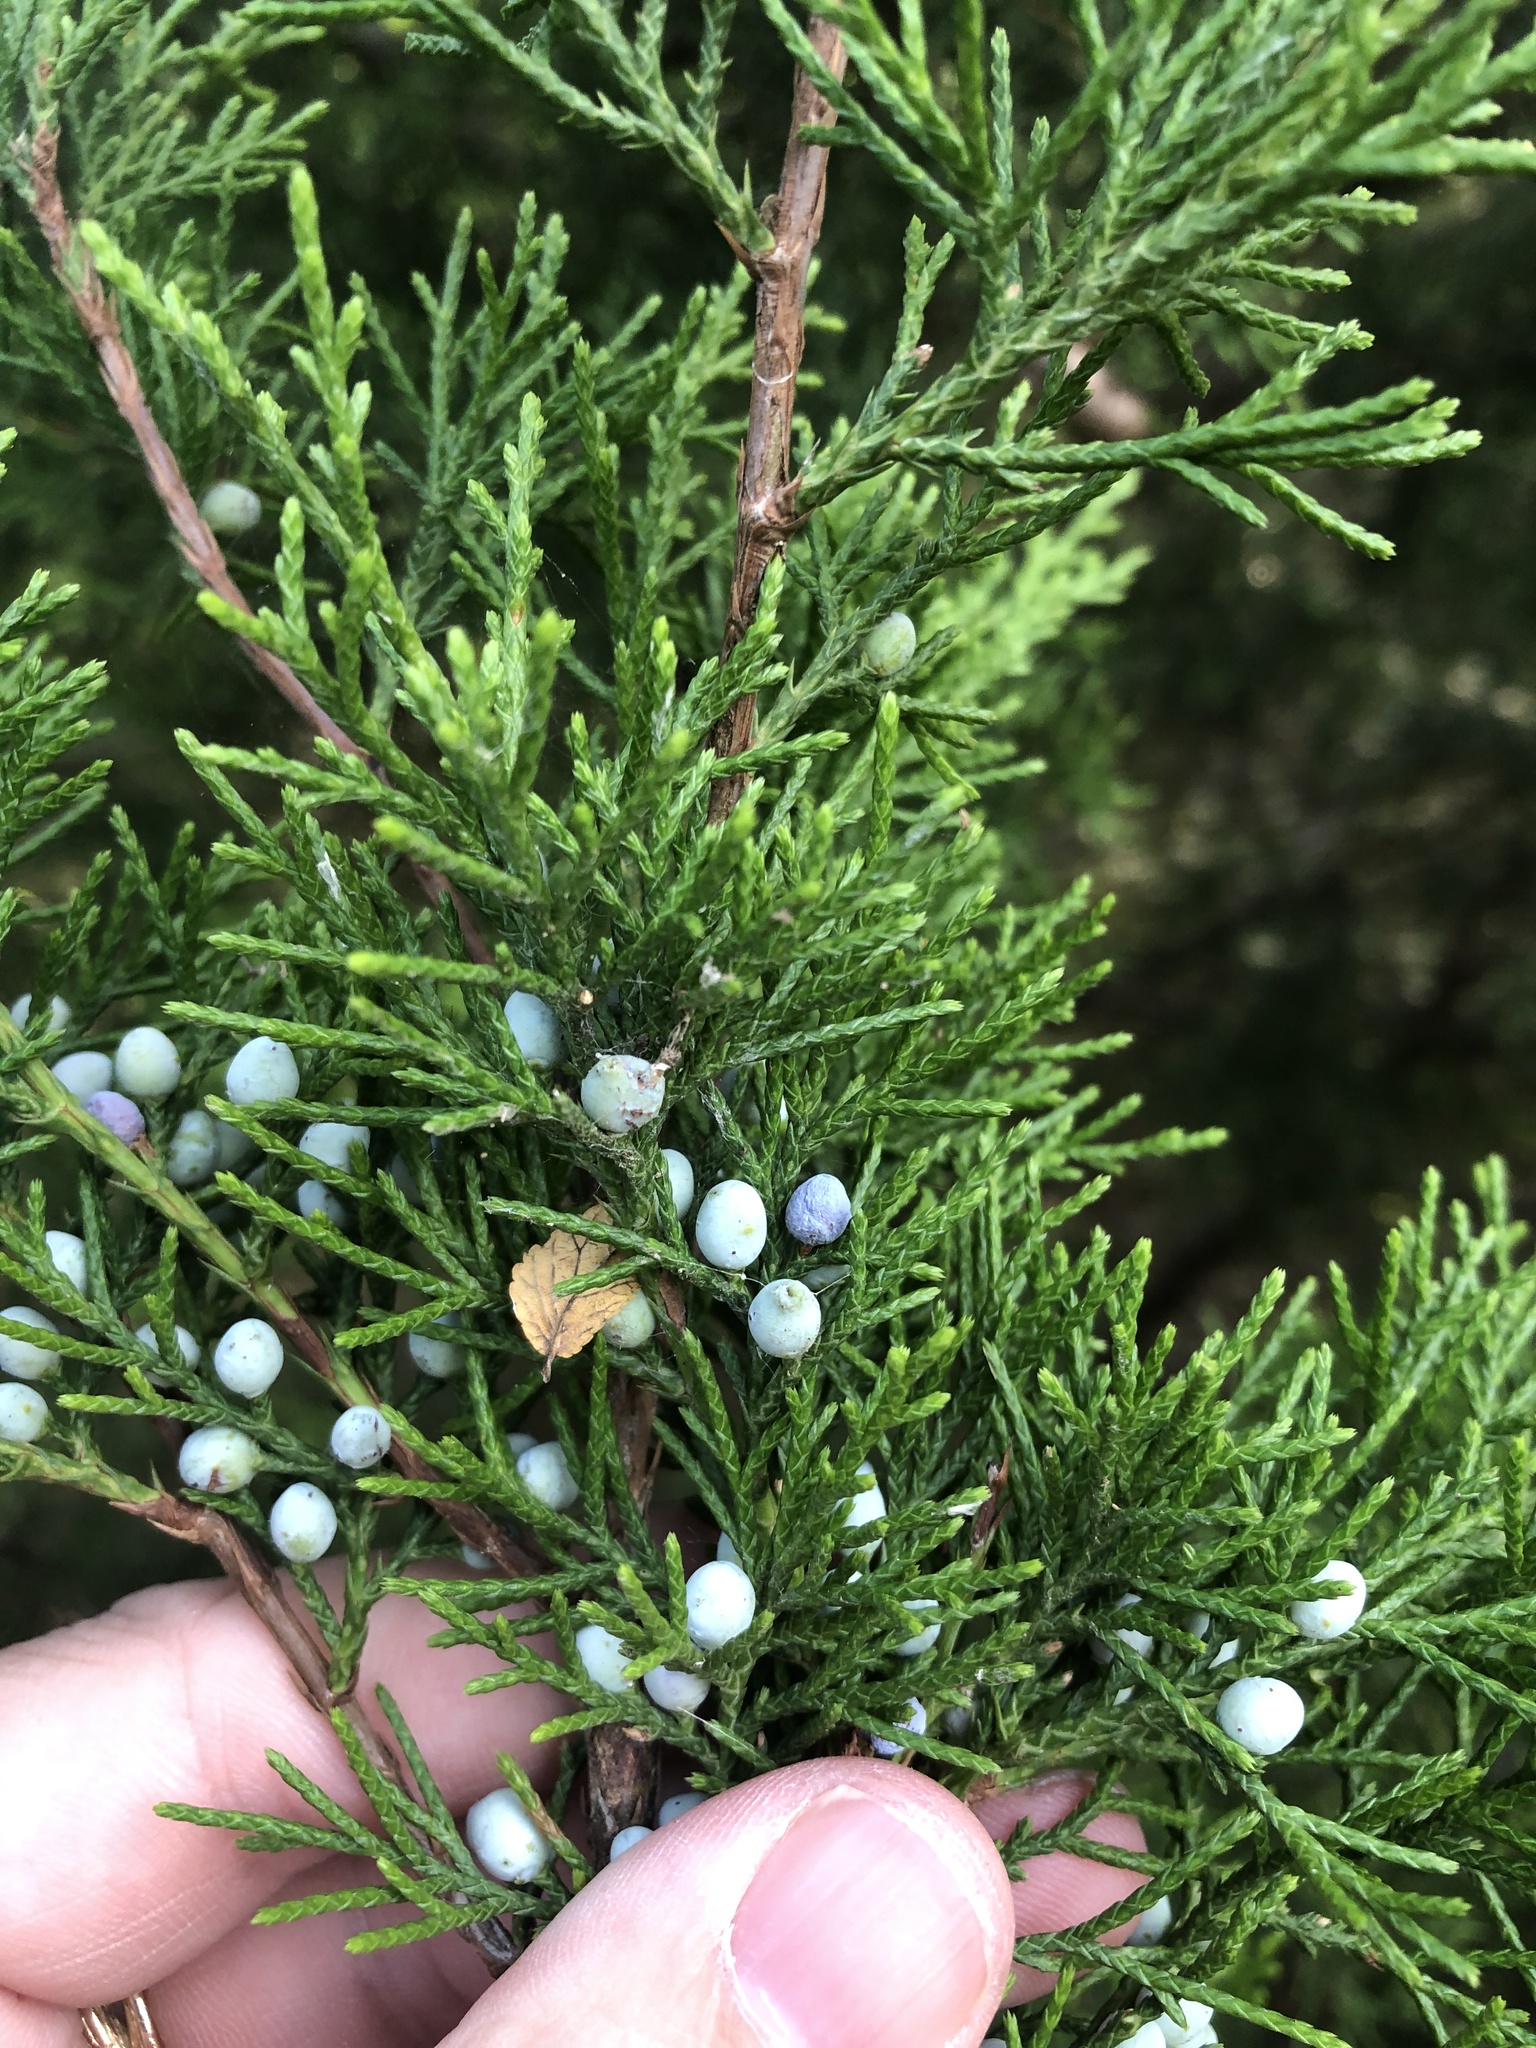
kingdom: Plantae
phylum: Tracheophyta
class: Pinopsida
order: Pinales
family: Cupressaceae
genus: Juniperus
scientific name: Juniperus virginiana
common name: Red juniper
